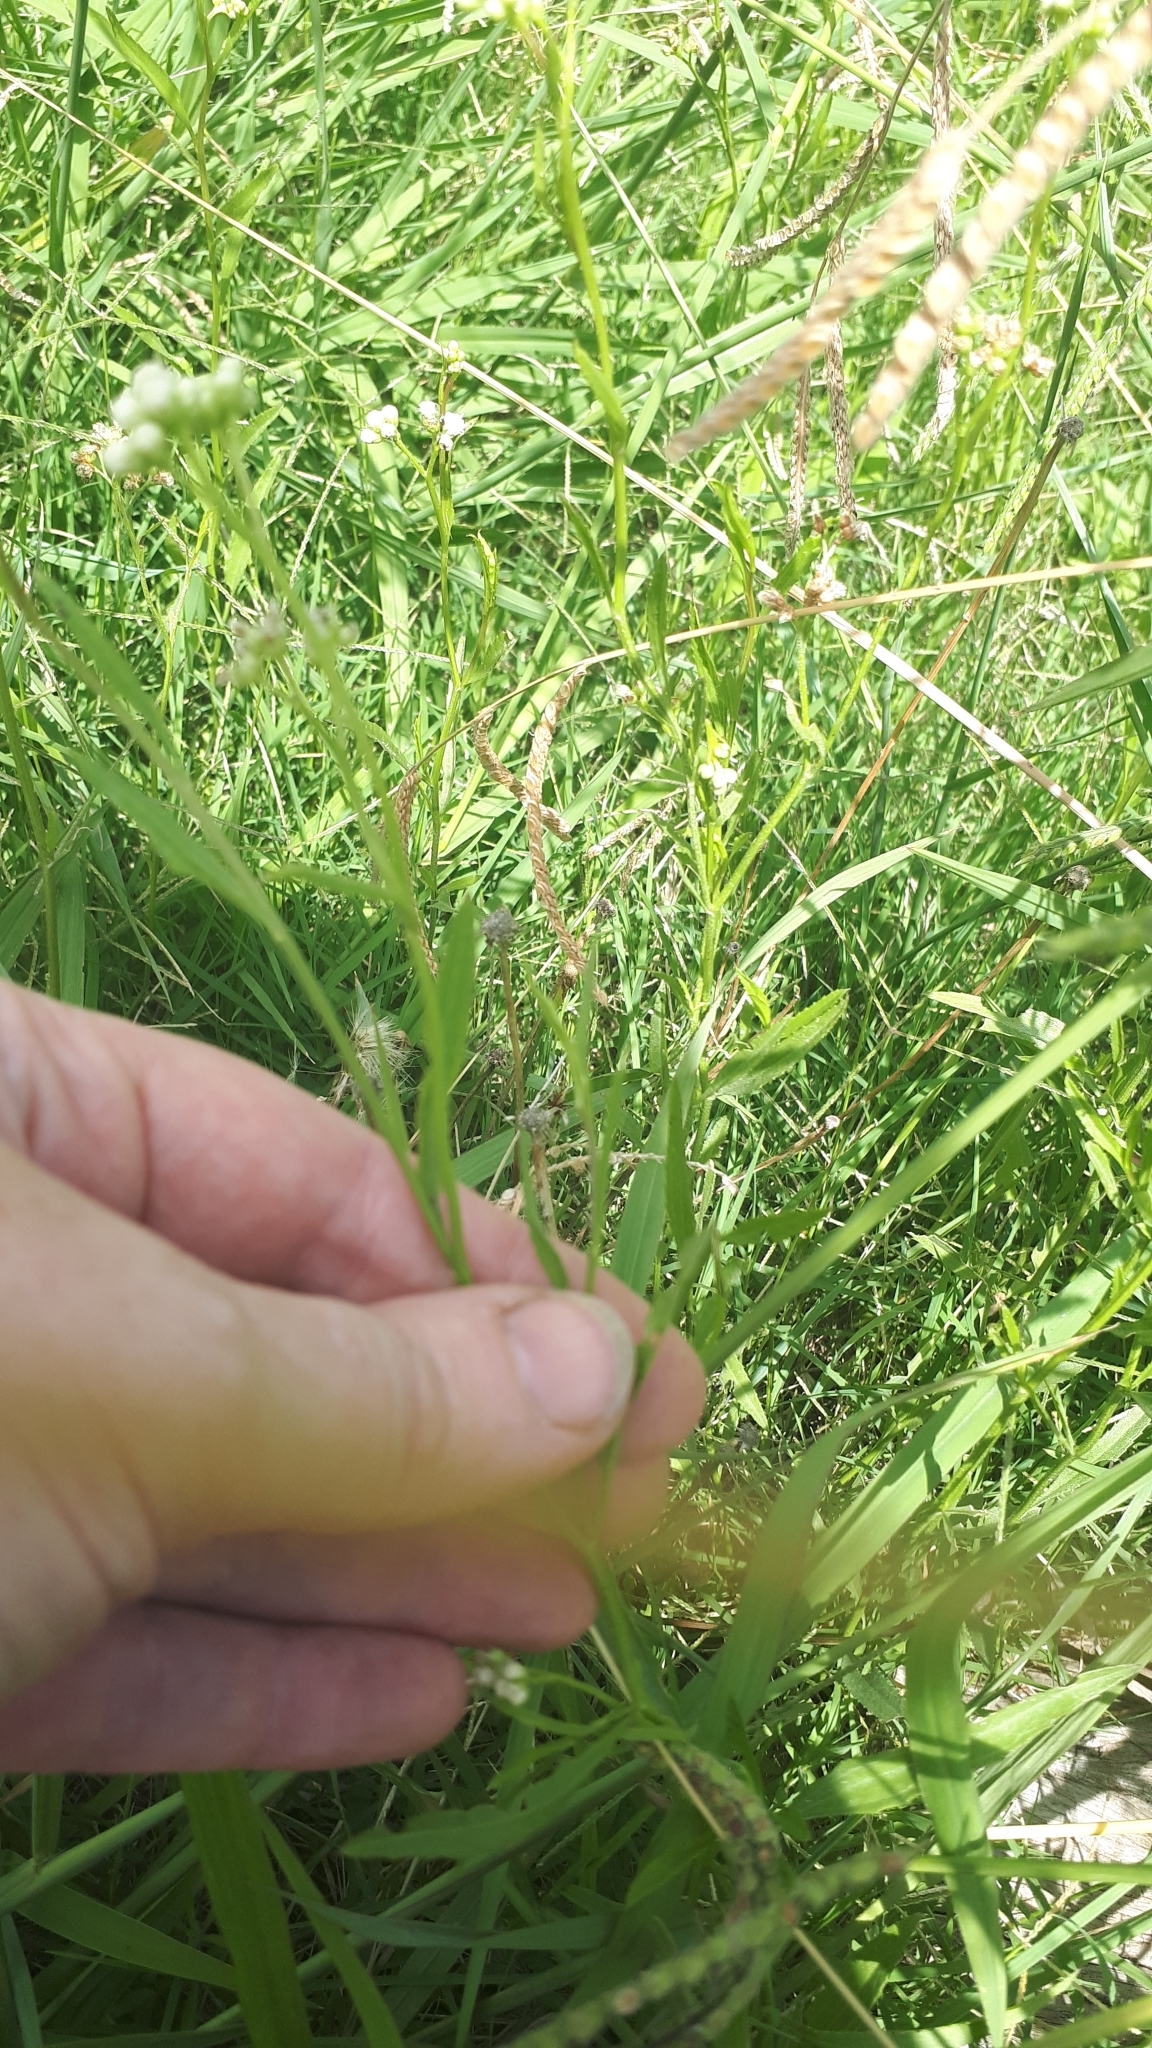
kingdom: Plantae
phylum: Tracheophyta
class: Magnoliopsida
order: Asterales
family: Asteraceae
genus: Baccharis
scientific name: Baccharis glutinosa
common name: Saltmarsh baccharis
